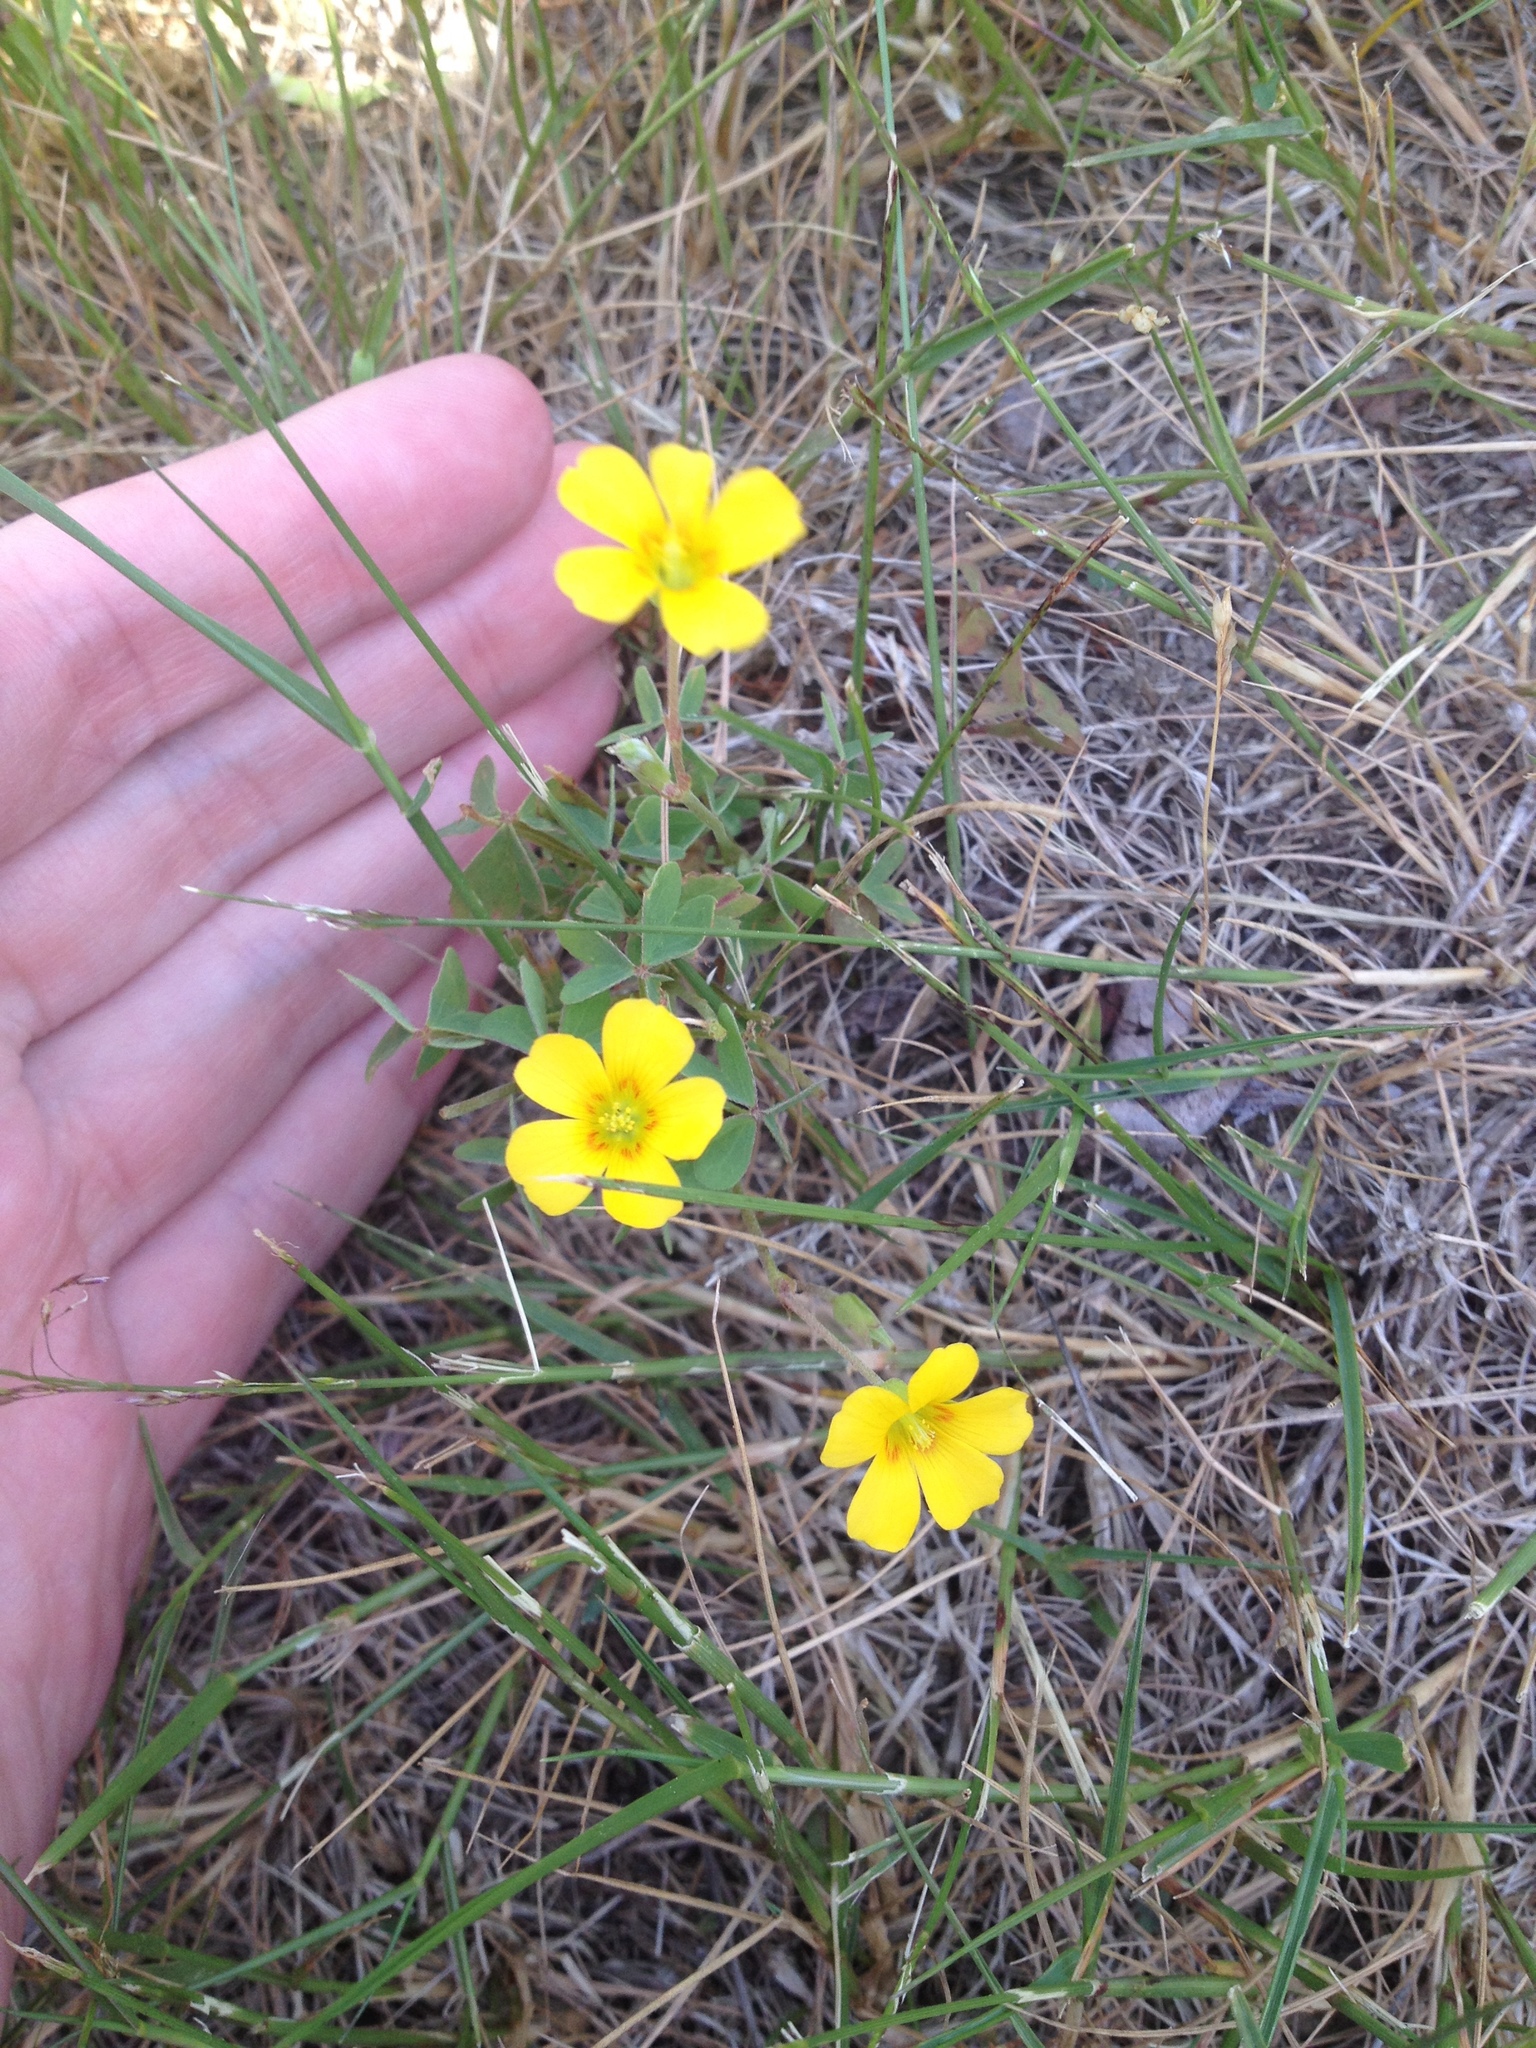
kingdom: Plantae
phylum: Tracheophyta
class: Magnoliopsida
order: Oxalidales
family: Oxalidaceae
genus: Oxalis
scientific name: Oxalis dillenii
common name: Sussex yellow-sorrel
